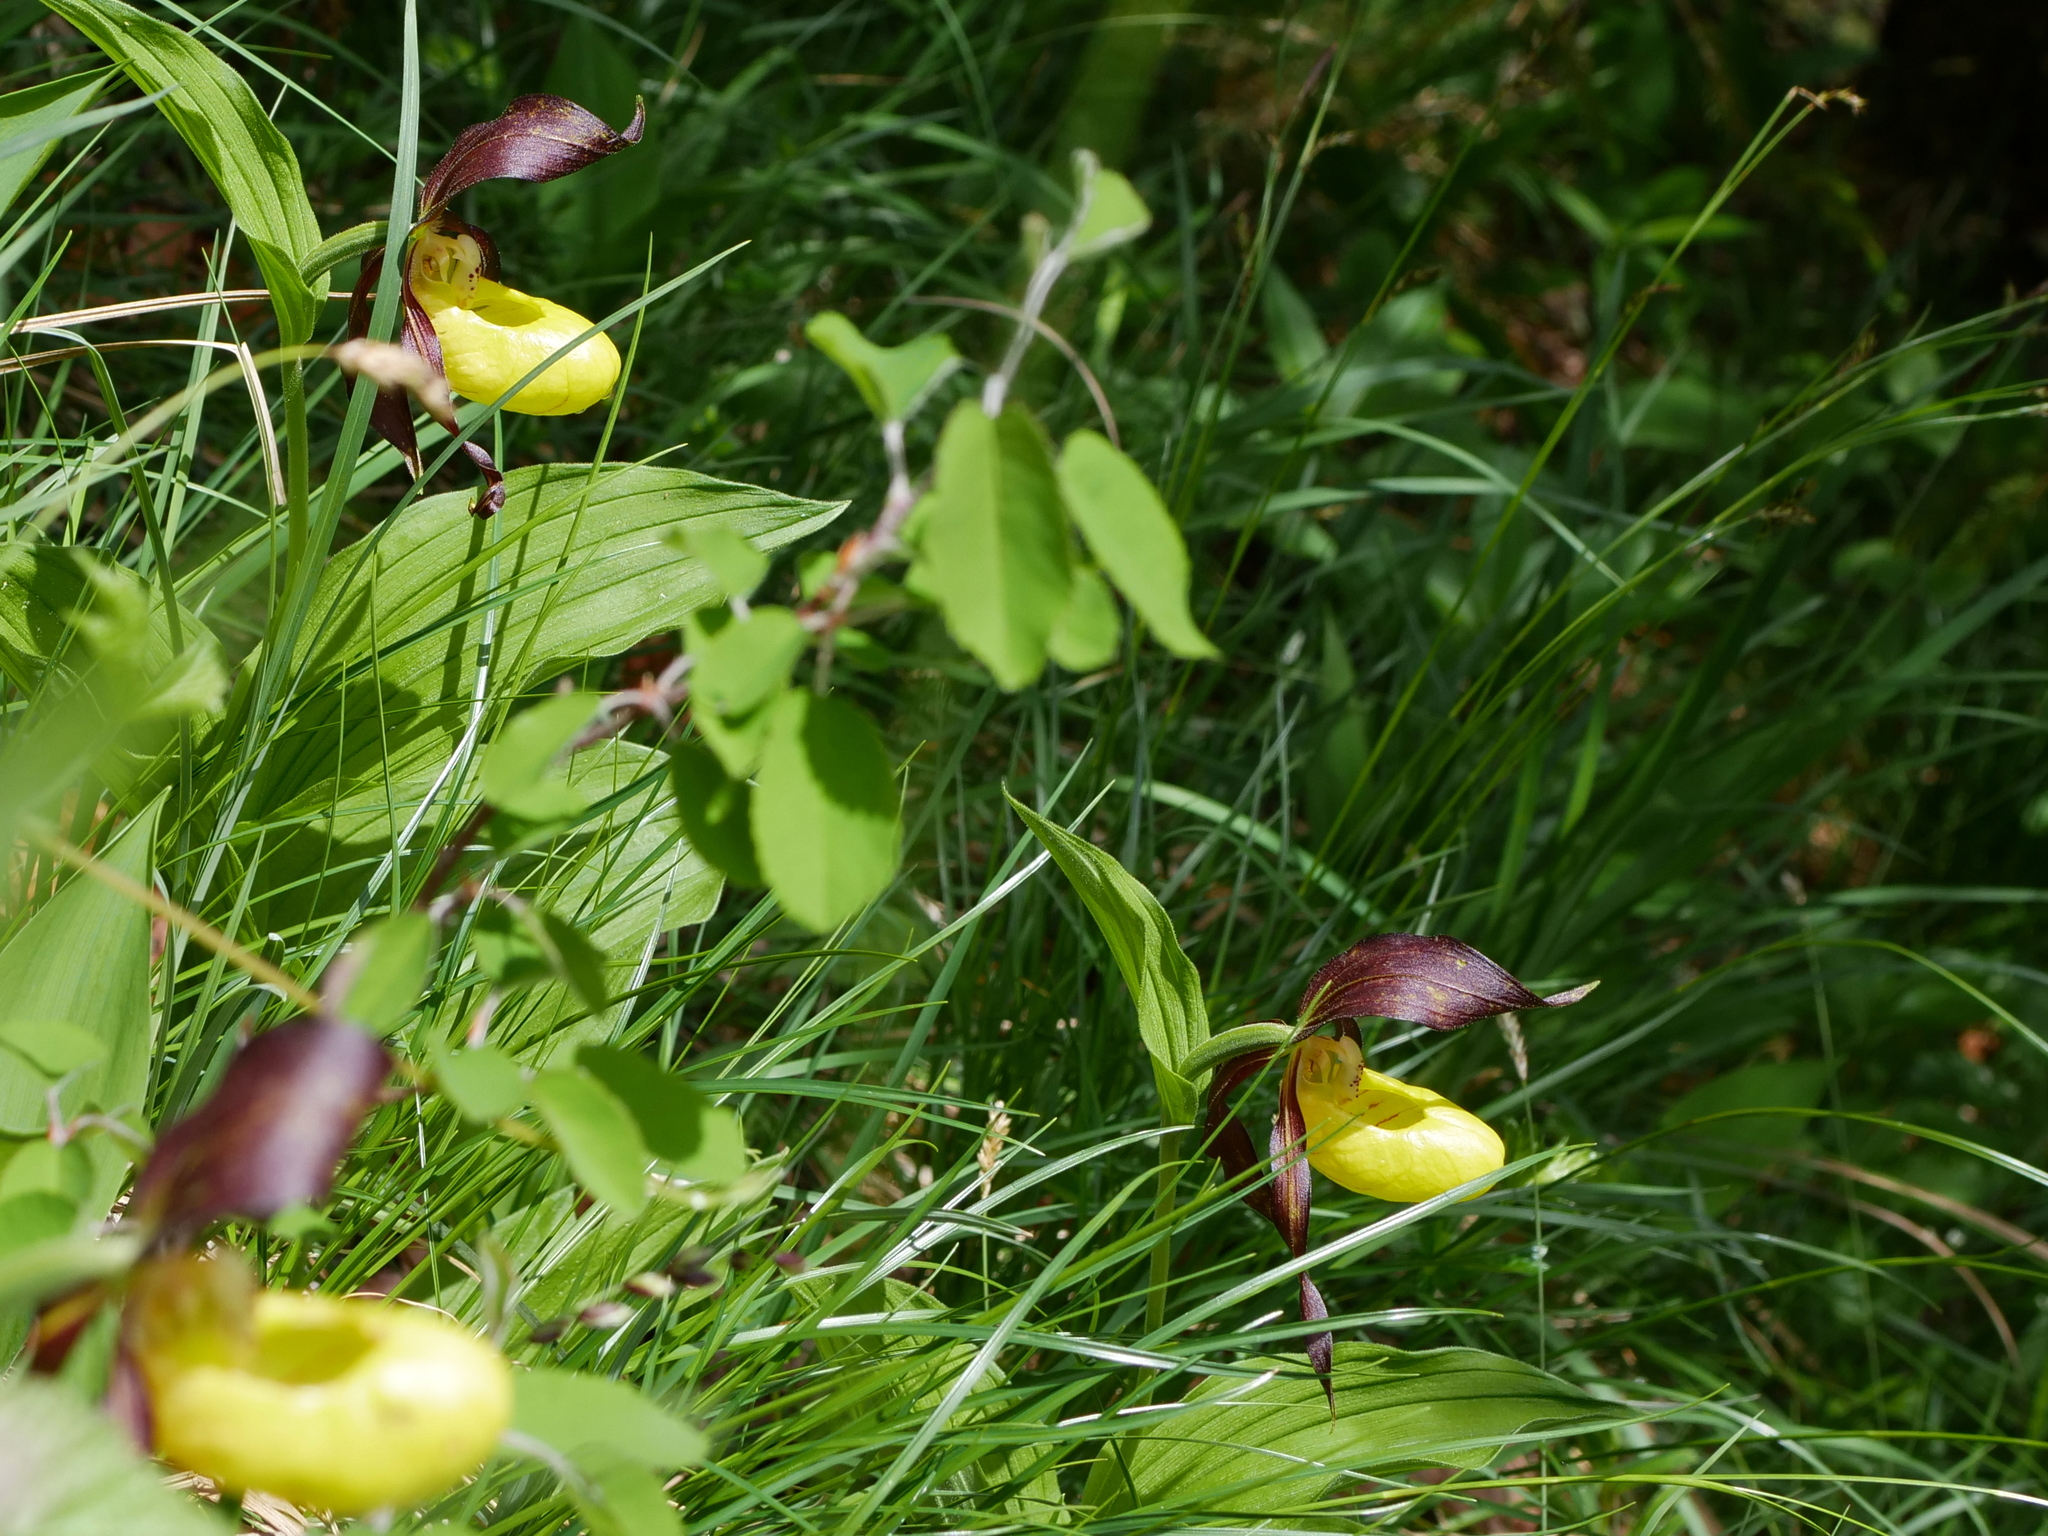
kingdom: Plantae
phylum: Tracheophyta
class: Liliopsida
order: Asparagales
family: Orchidaceae
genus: Cypripedium
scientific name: Cypripedium calceolus
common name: Lady's-slipper
